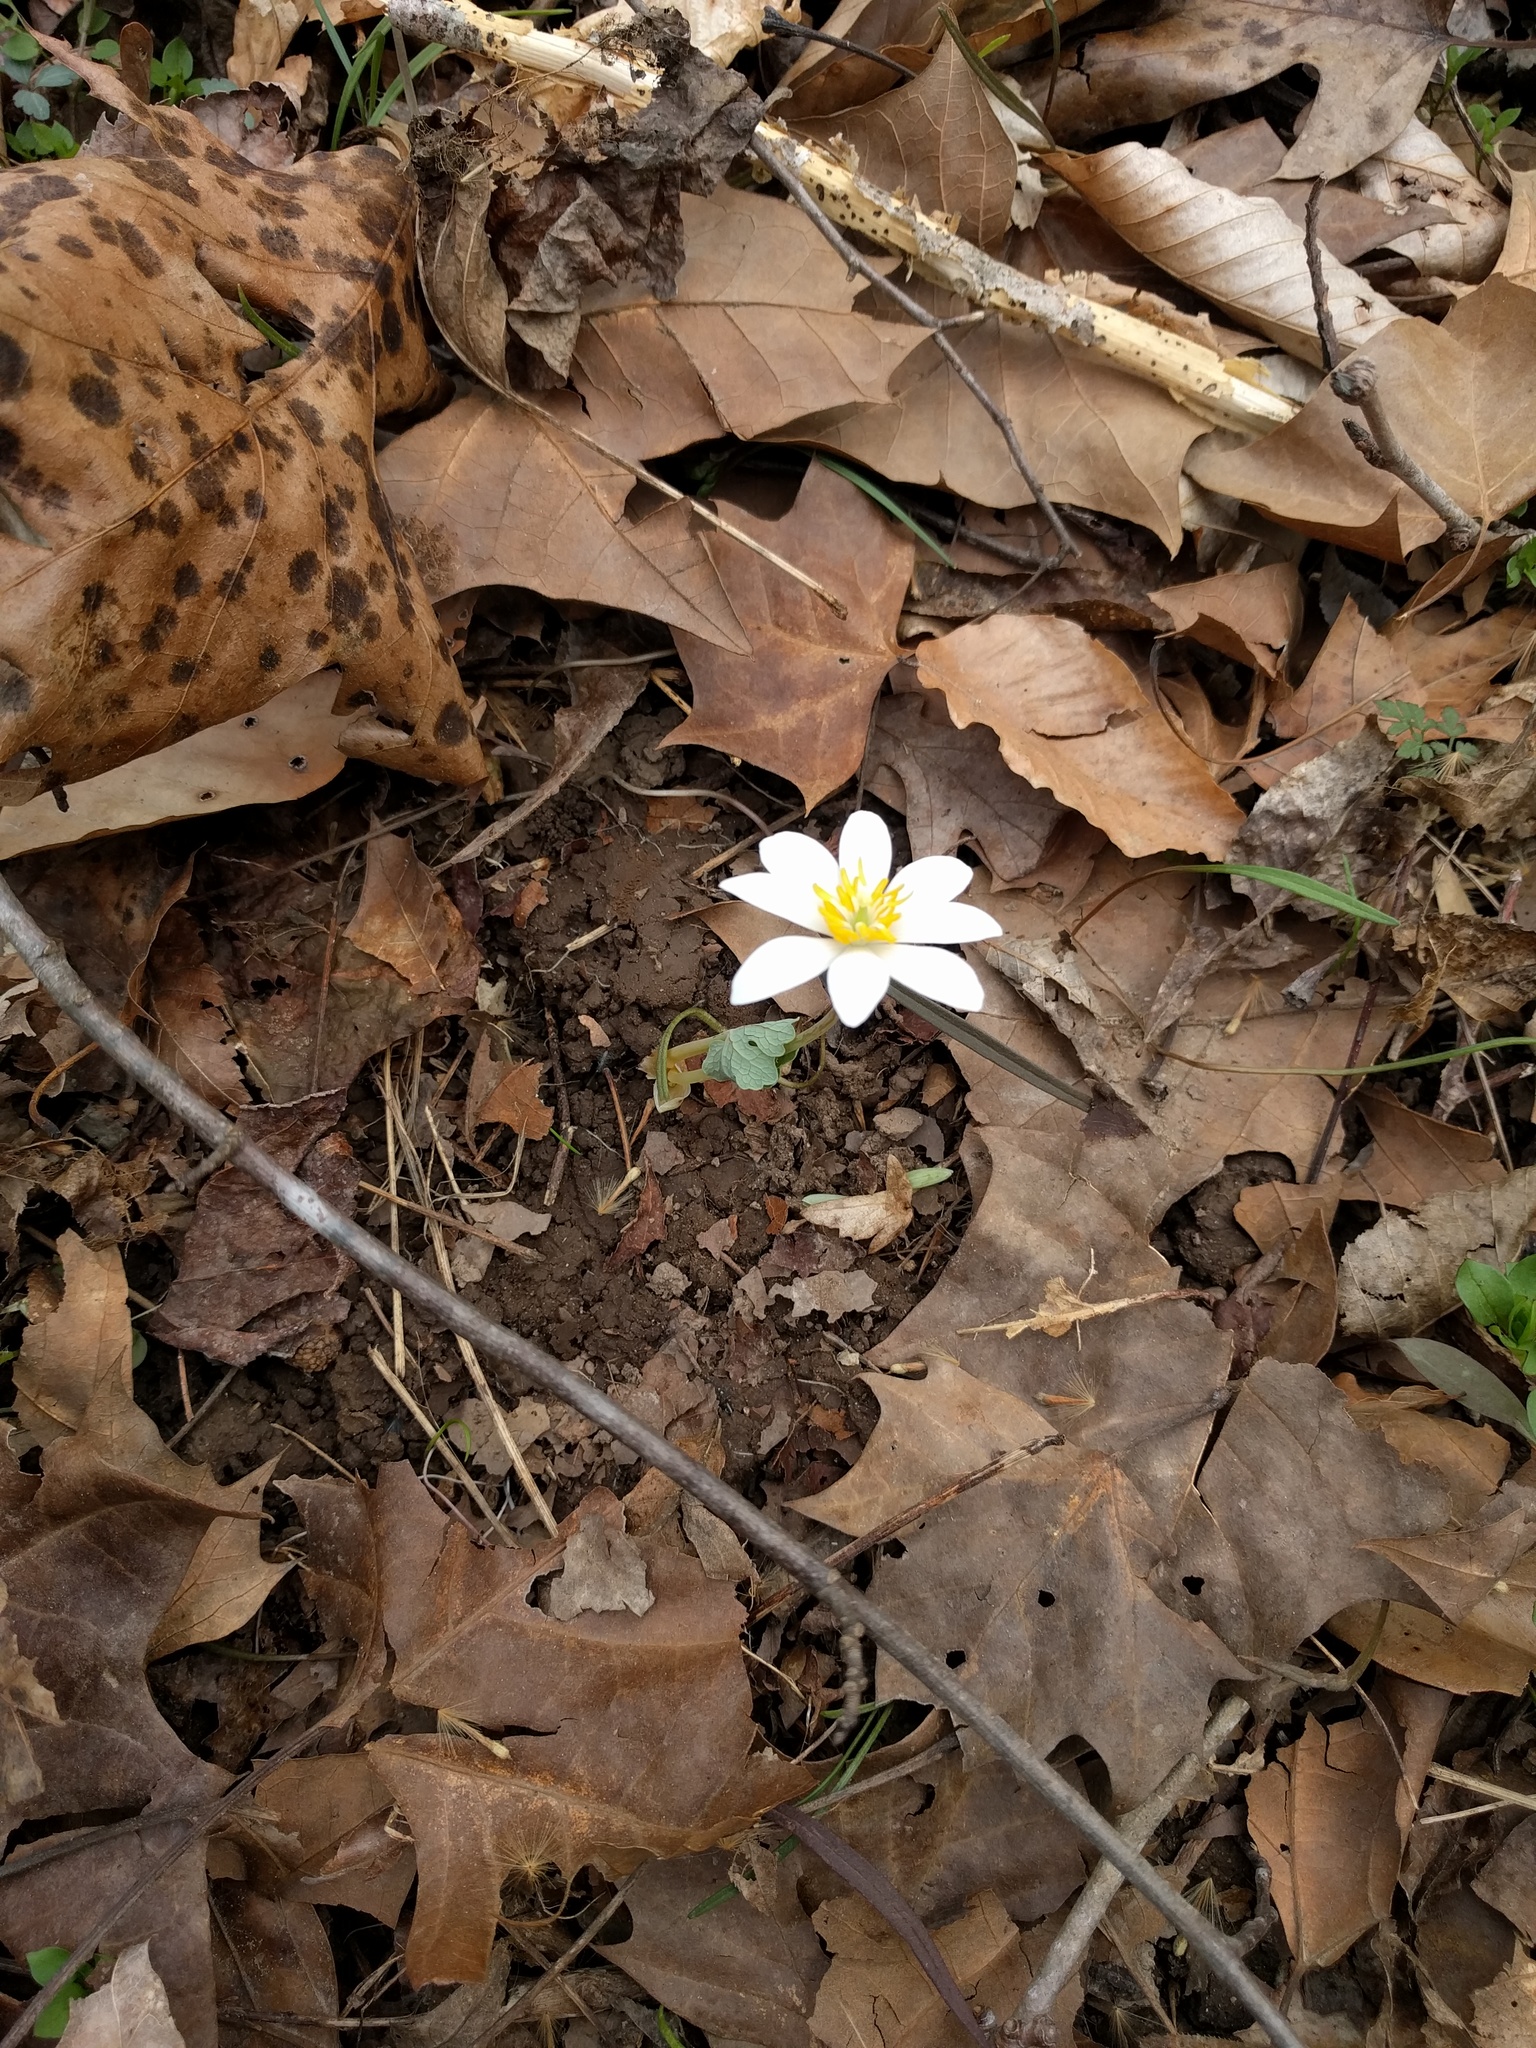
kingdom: Plantae
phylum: Tracheophyta
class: Magnoliopsida
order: Ranunculales
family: Papaveraceae
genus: Sanguinaria
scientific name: Sanguinaria canadensis
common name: Bloodroot
